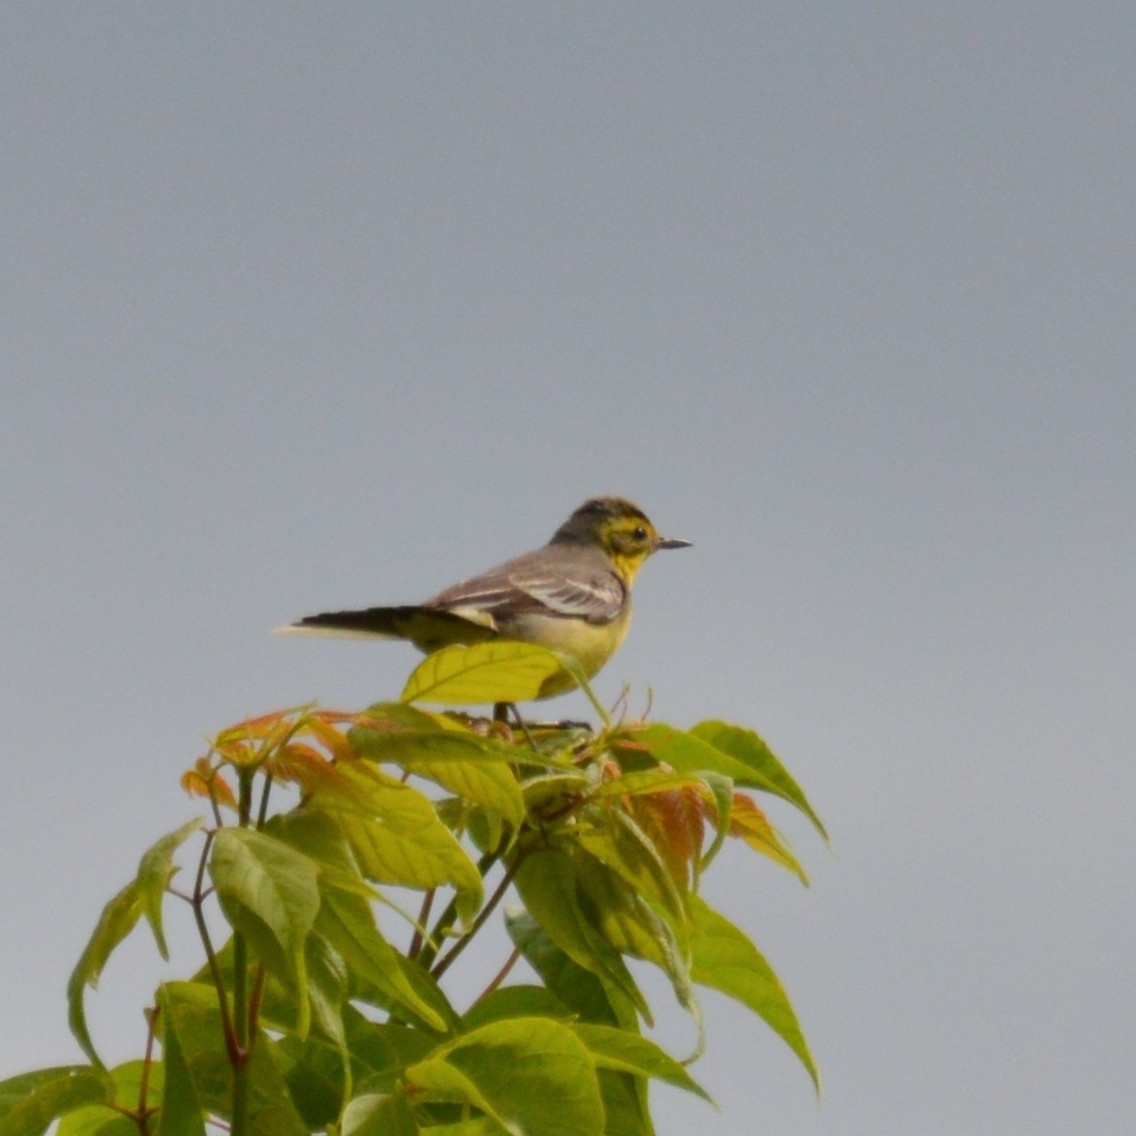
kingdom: Animalia
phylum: Chordata
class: Aves
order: Passeriformes
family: Motacillidae
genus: Motacilla
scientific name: Motacilla citreola
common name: Citrine wagtail
